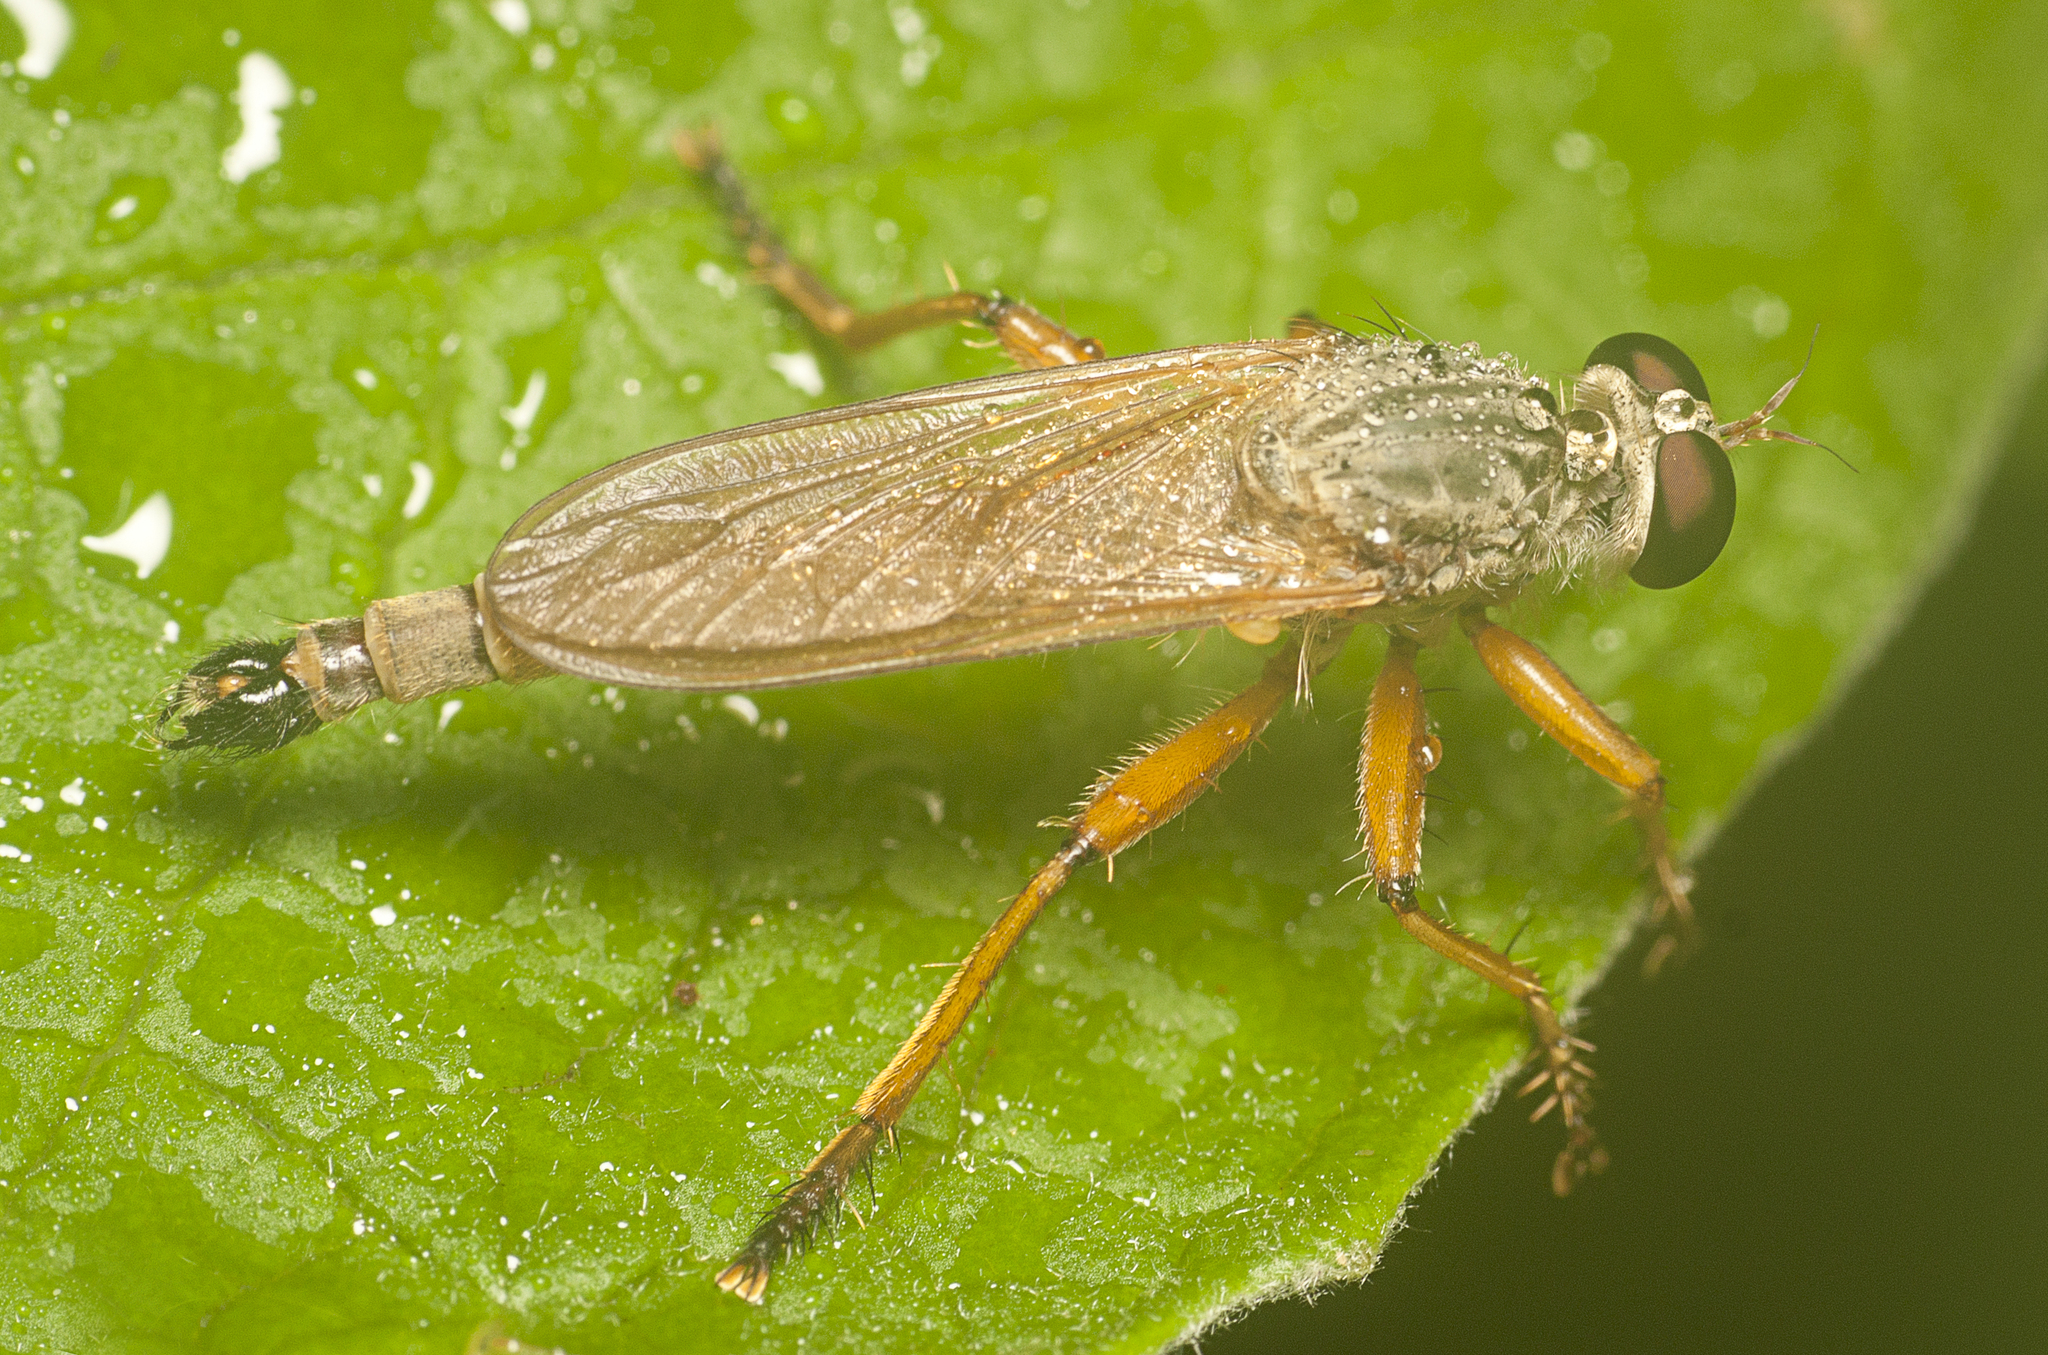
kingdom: Animalia
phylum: Arthropoda
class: Insecta
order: Diptera
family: Asilidae
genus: Zosteria
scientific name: Zosteria fulvipubescens
